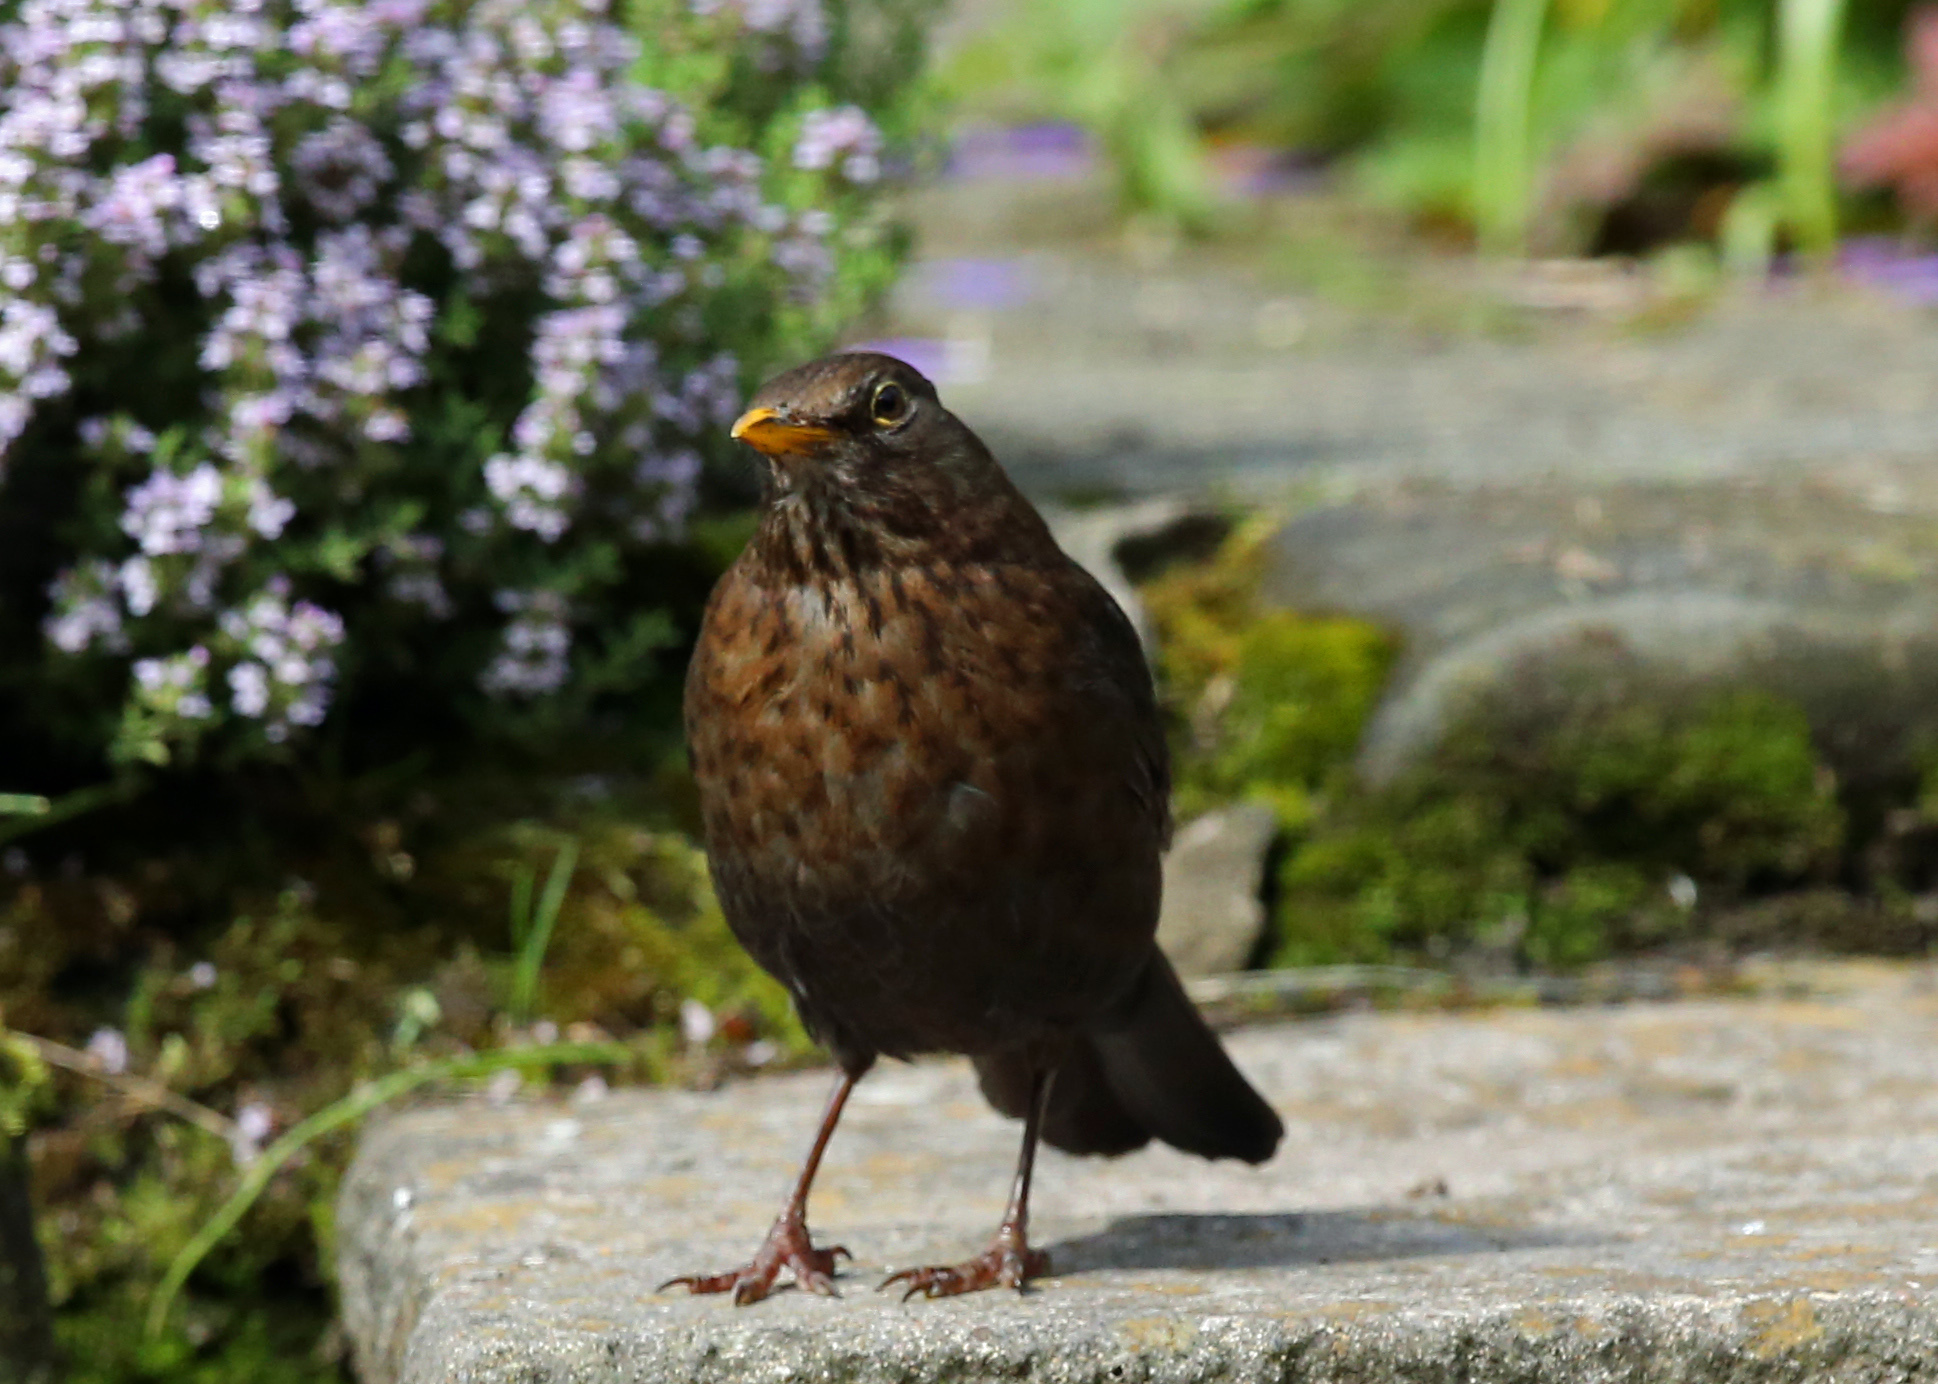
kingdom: Animalia
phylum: Chordata
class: Aves
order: Passeriformes
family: Turdidae
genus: Turdus
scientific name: Turdus merula
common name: Common blackbird
